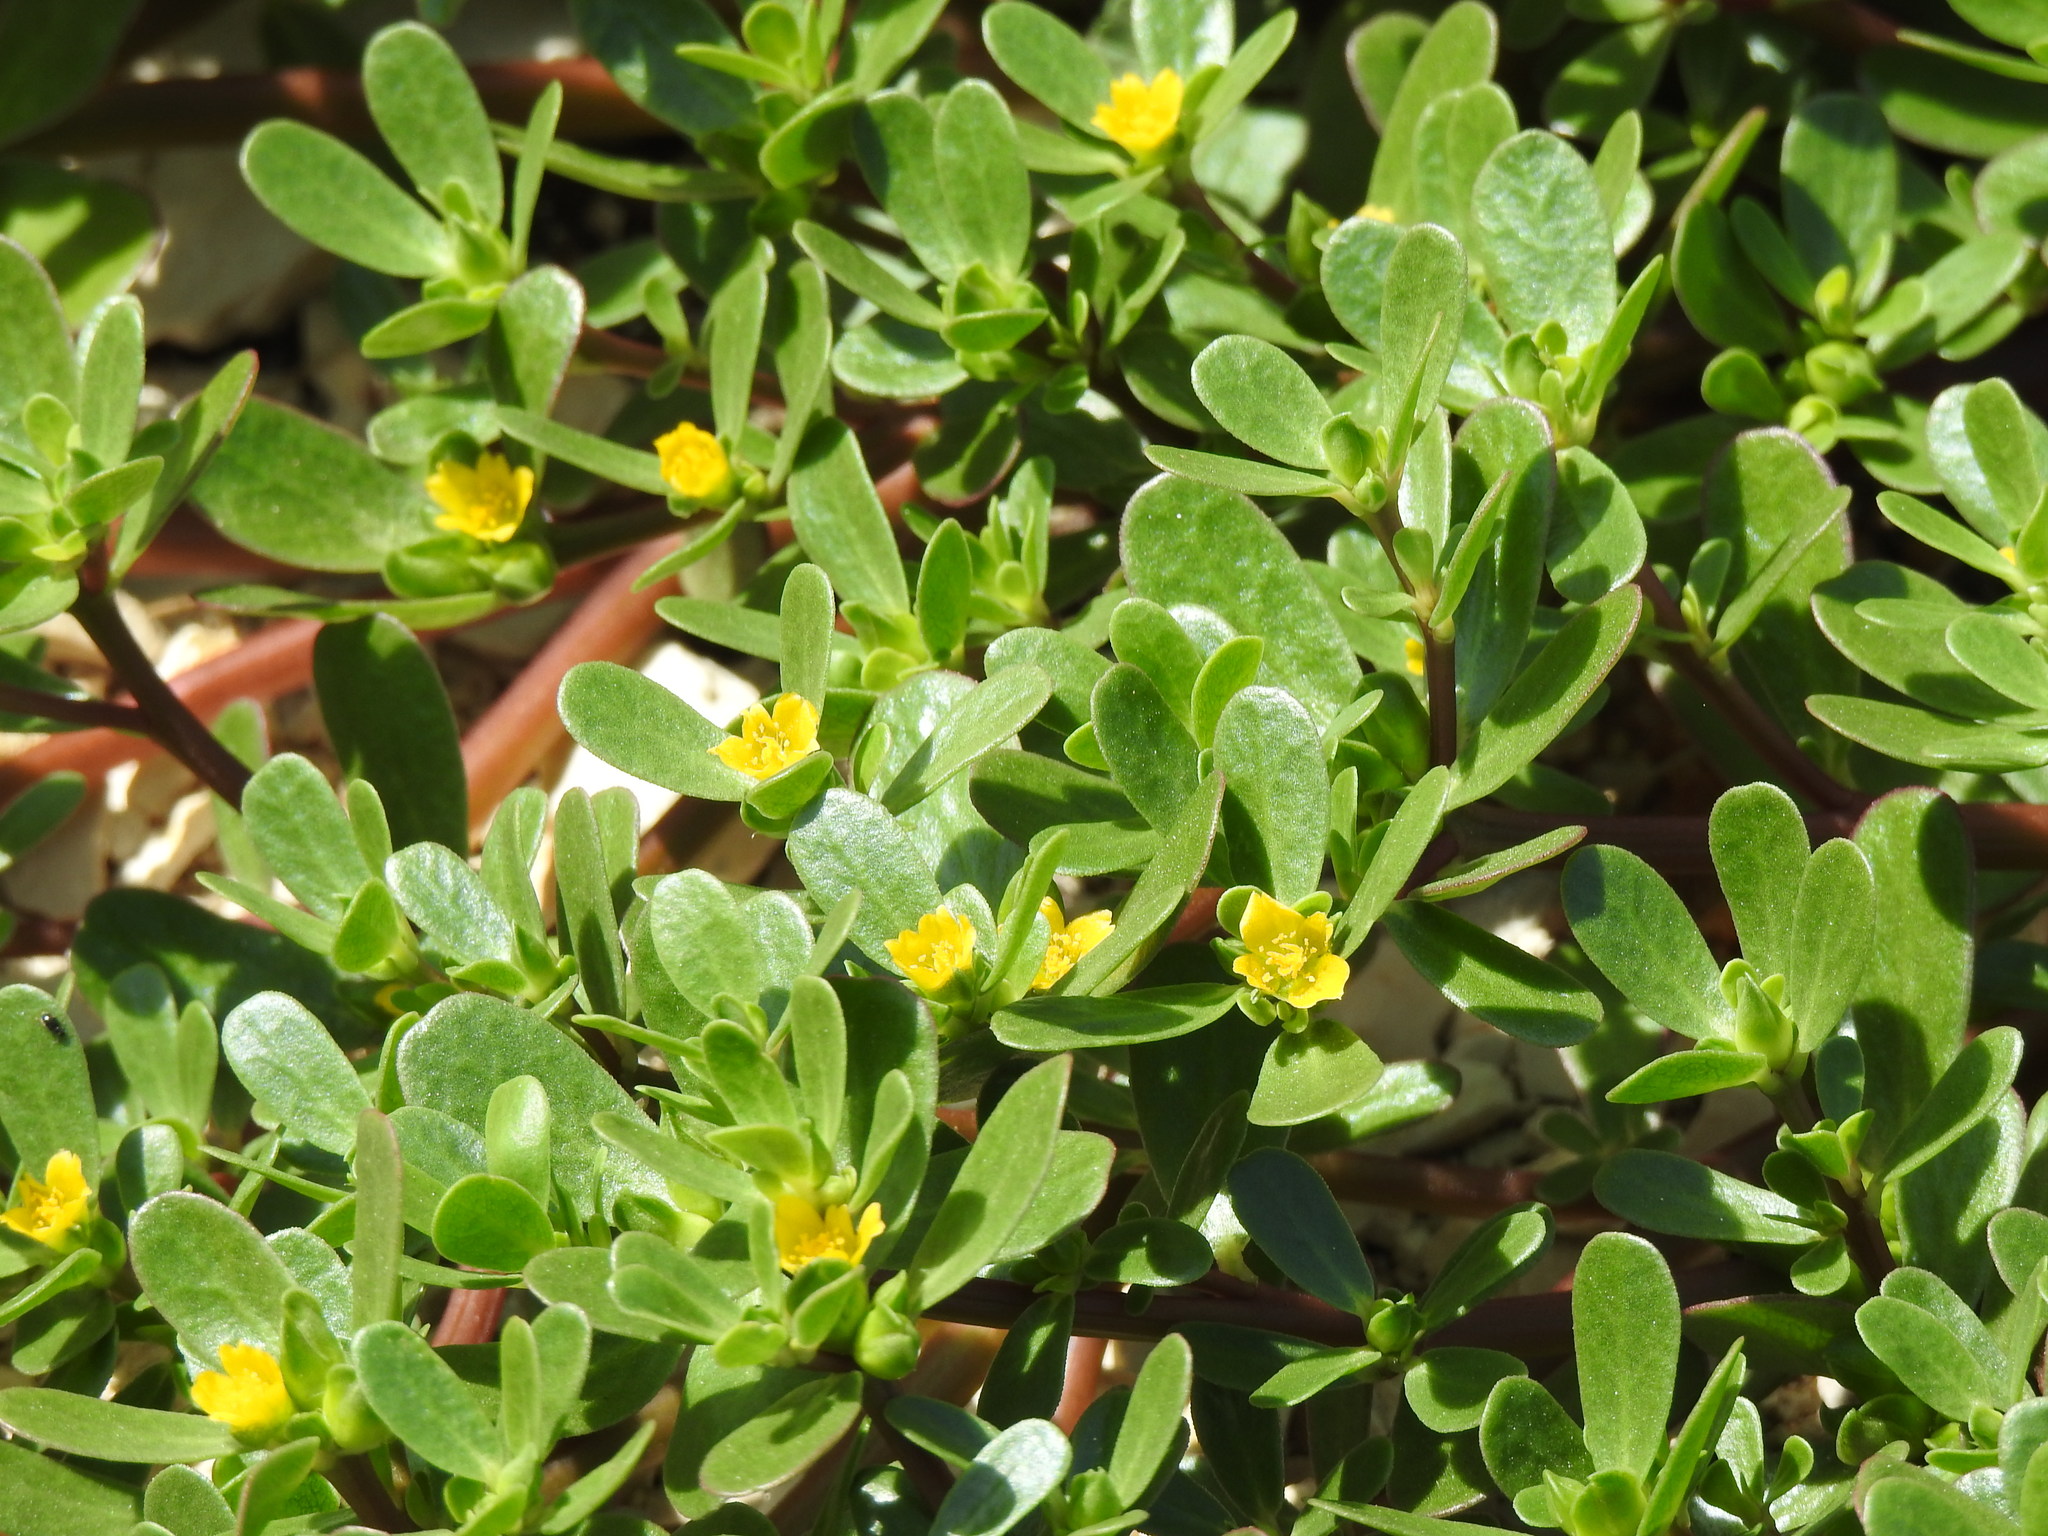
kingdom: Plantae
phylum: Tracheophyta
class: Magnoliopsida
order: Caryophyllales
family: Portulacaceae
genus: Portulaca
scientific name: Portulaca oleracea
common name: Common purslane
